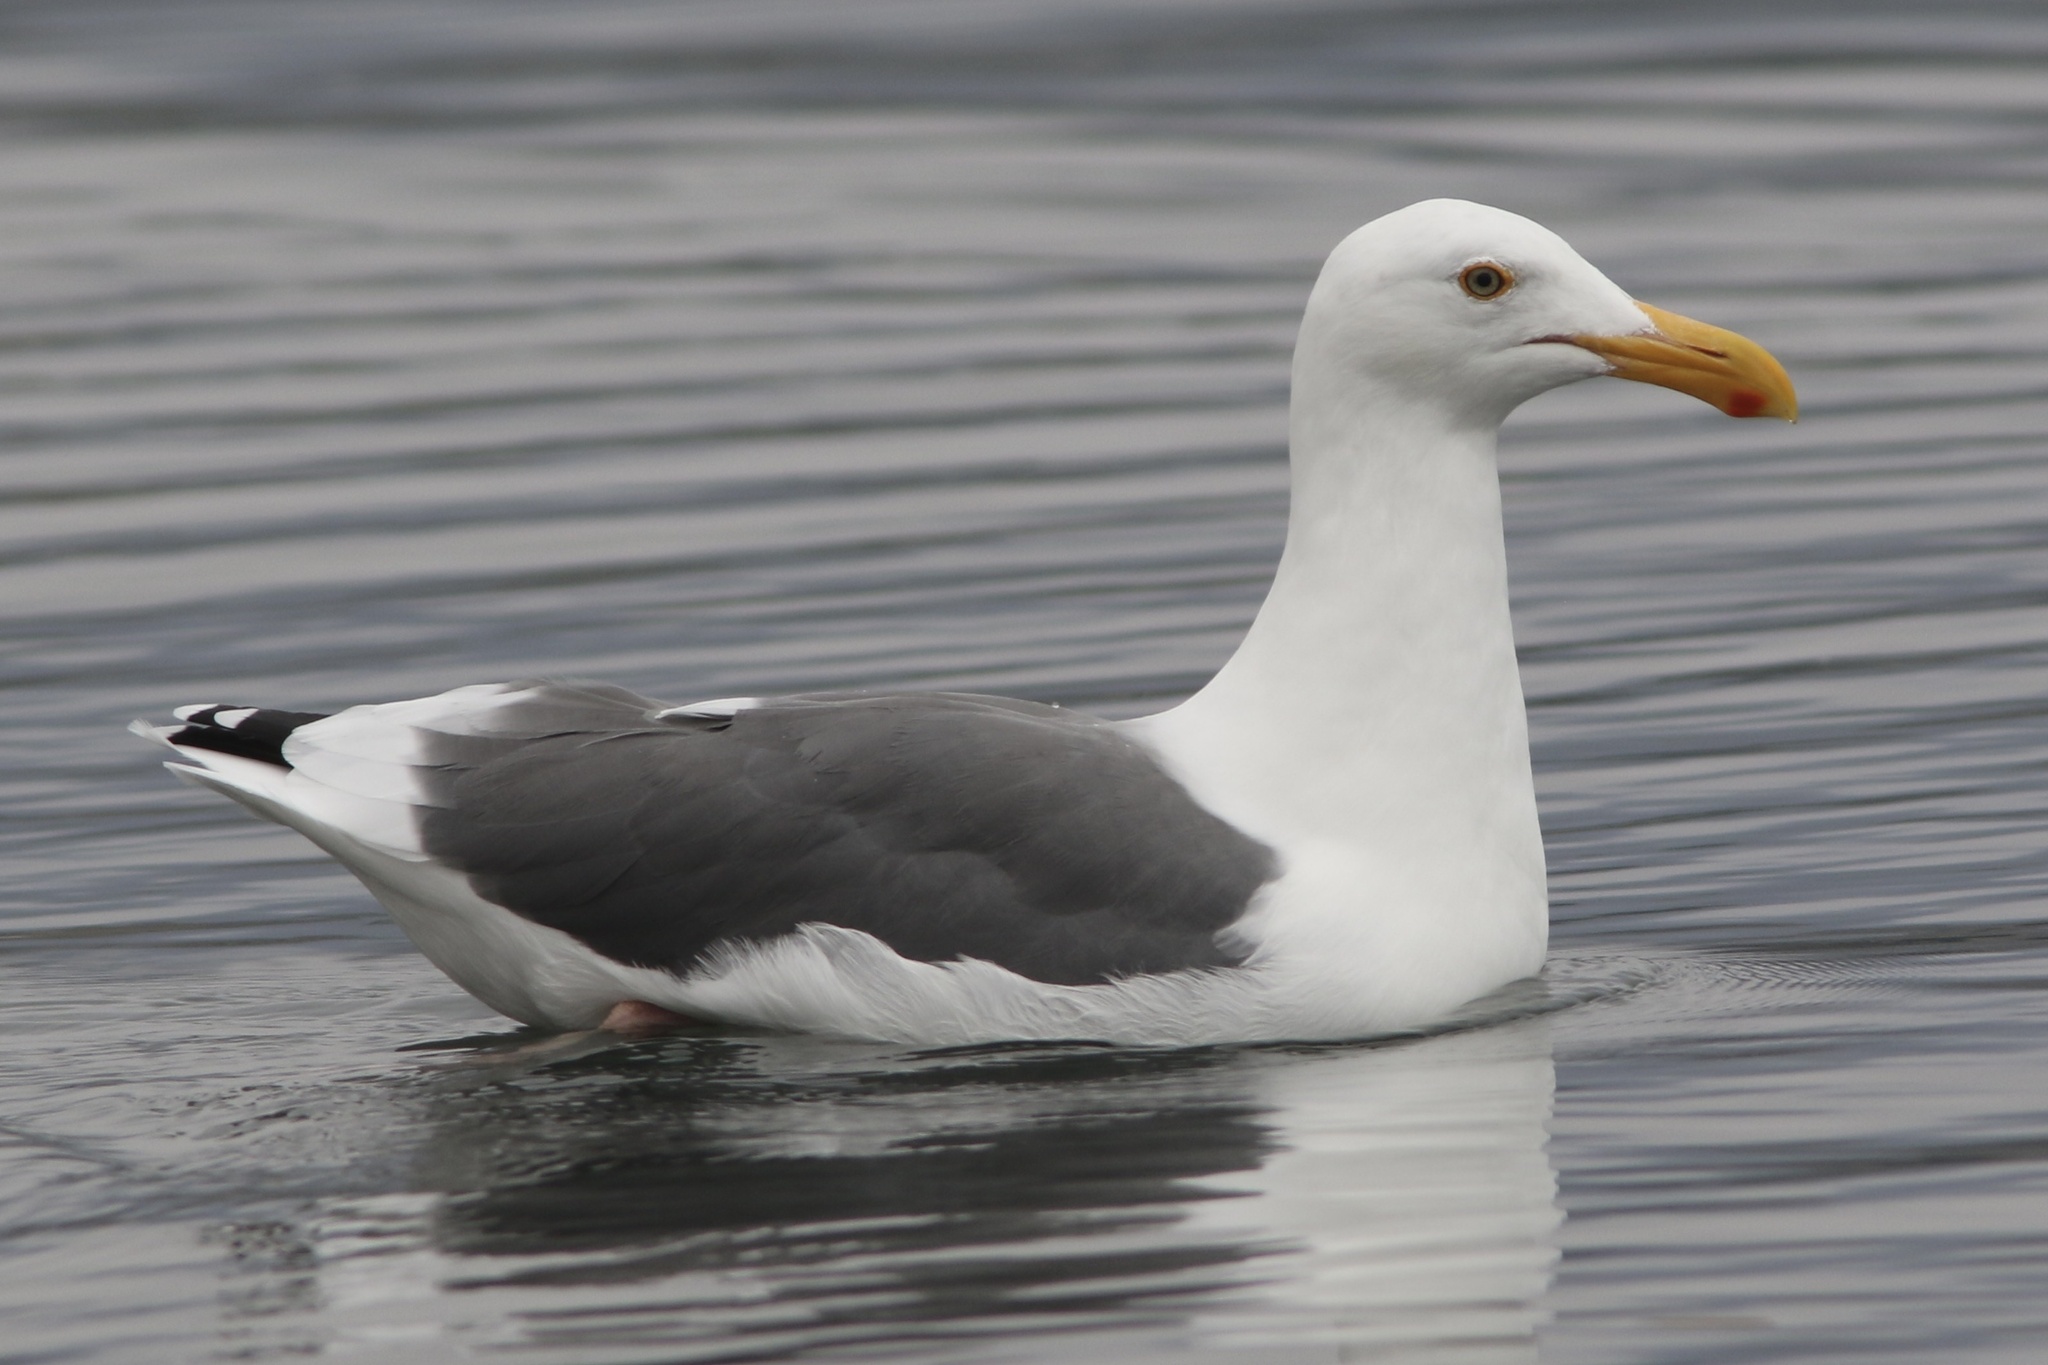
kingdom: Animalia
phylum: Chordata
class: Aves
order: Charadriiformes
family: Laridae
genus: Larus
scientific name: Larus occidentalis
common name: Western gull
